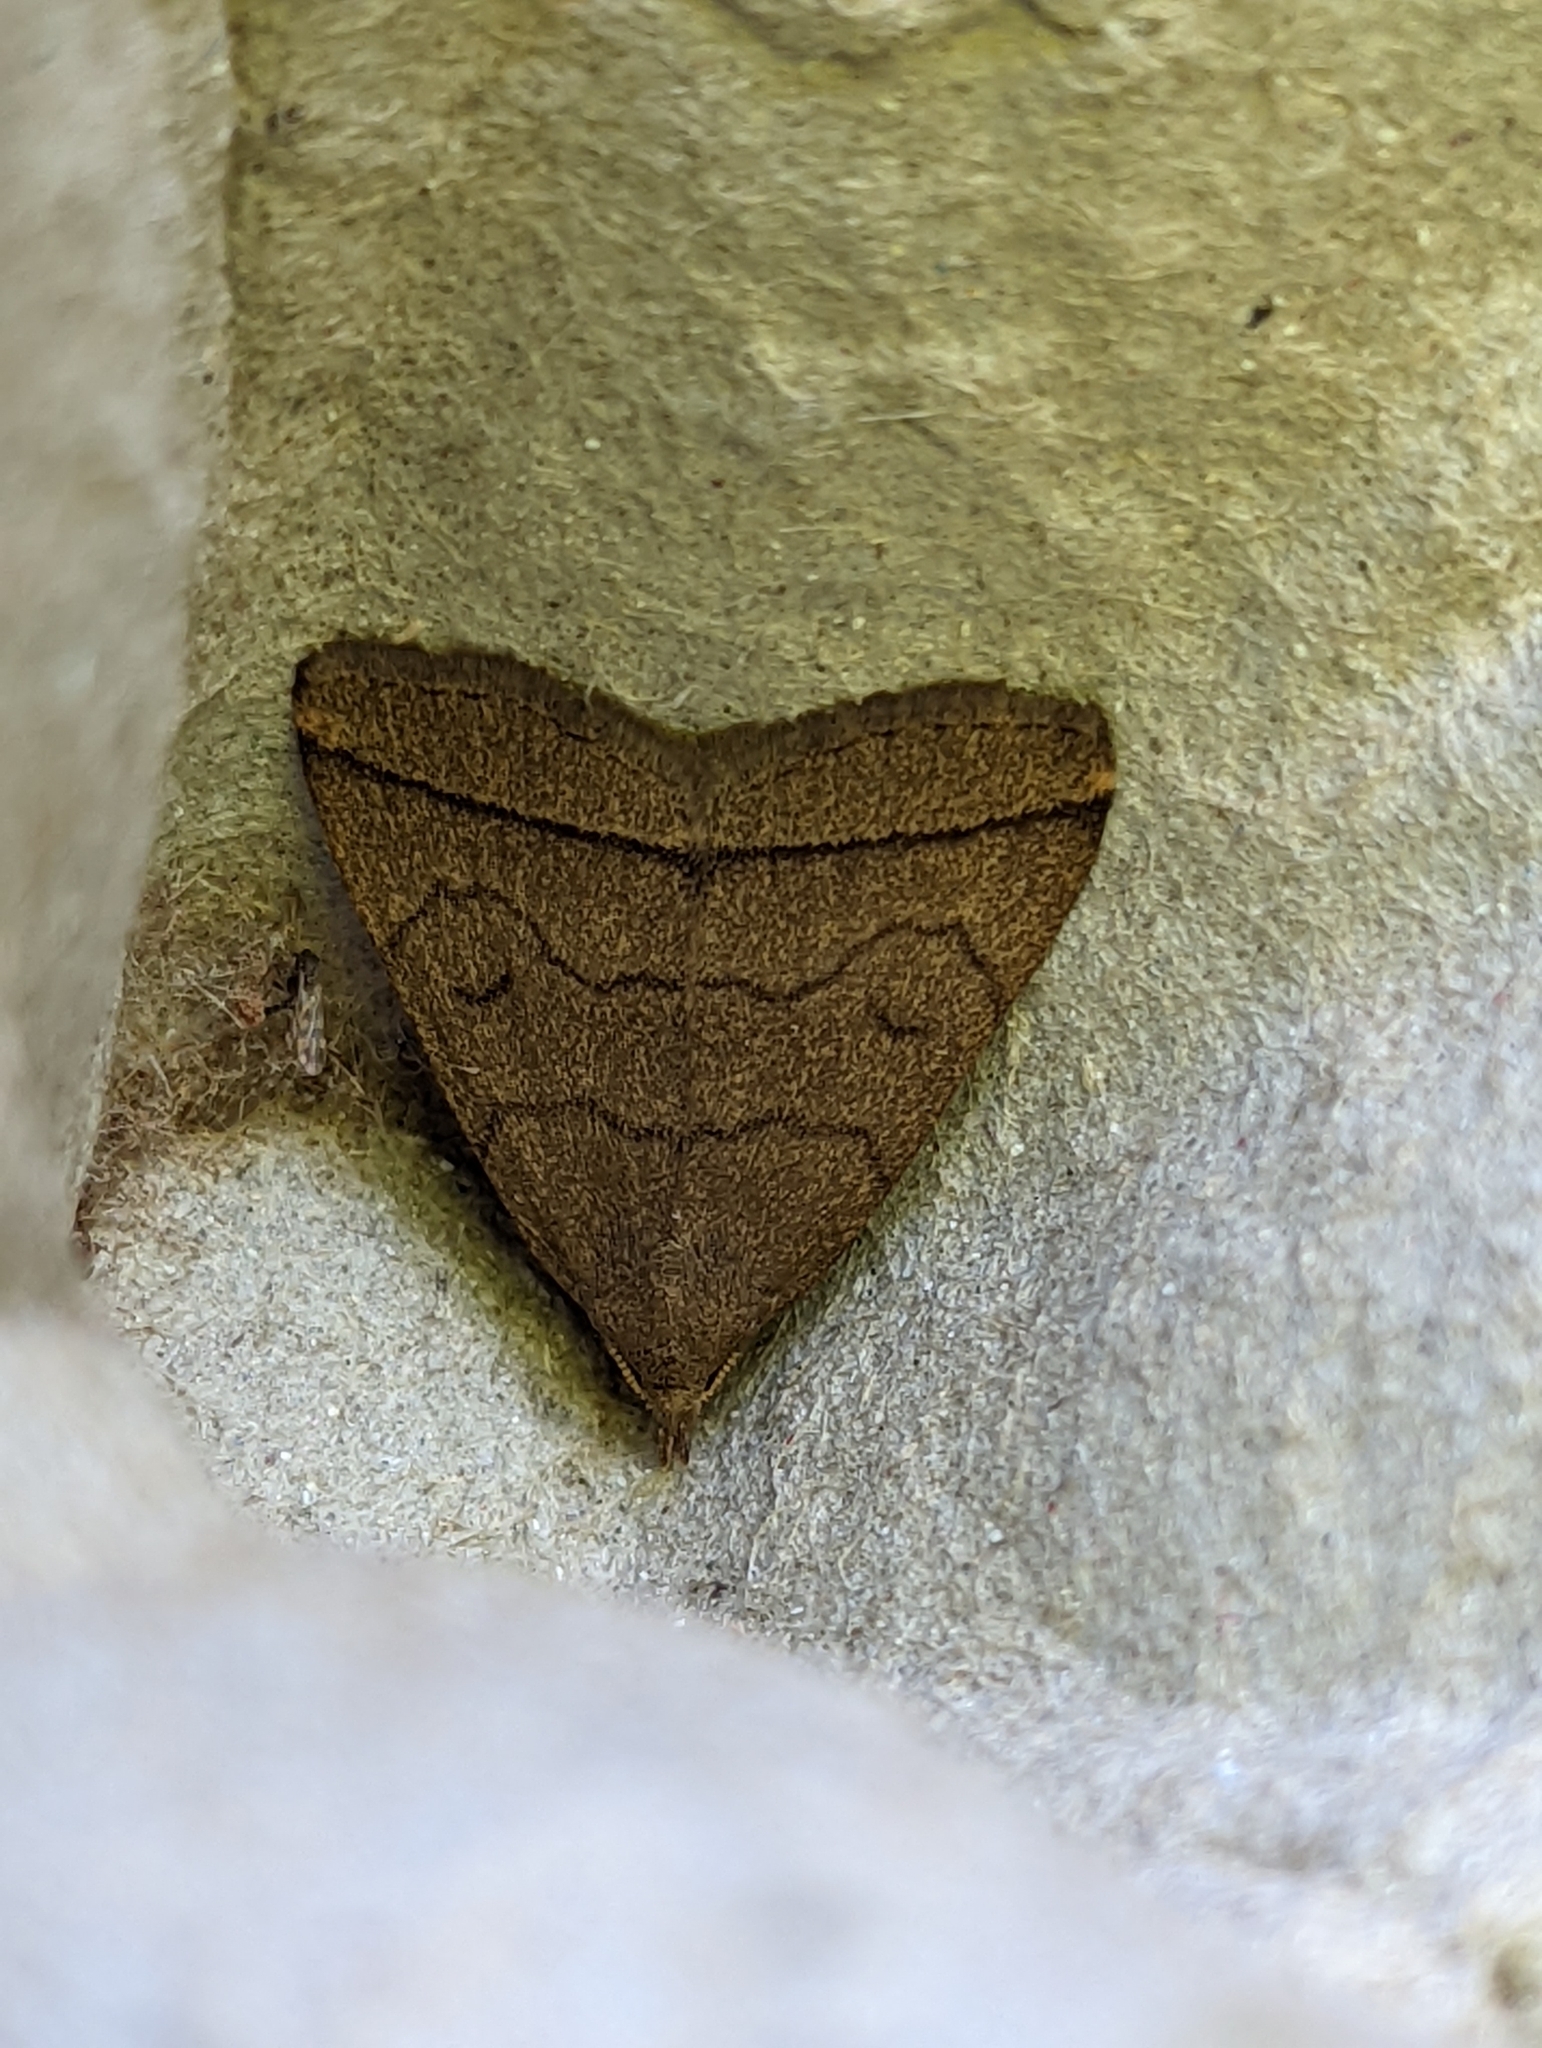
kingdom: Animalia
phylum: Arthropoda
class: Insecta
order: Lepidoptera
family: Erebidae
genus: Herminia
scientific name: Herminia tarsipennalis
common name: Fan-foot
